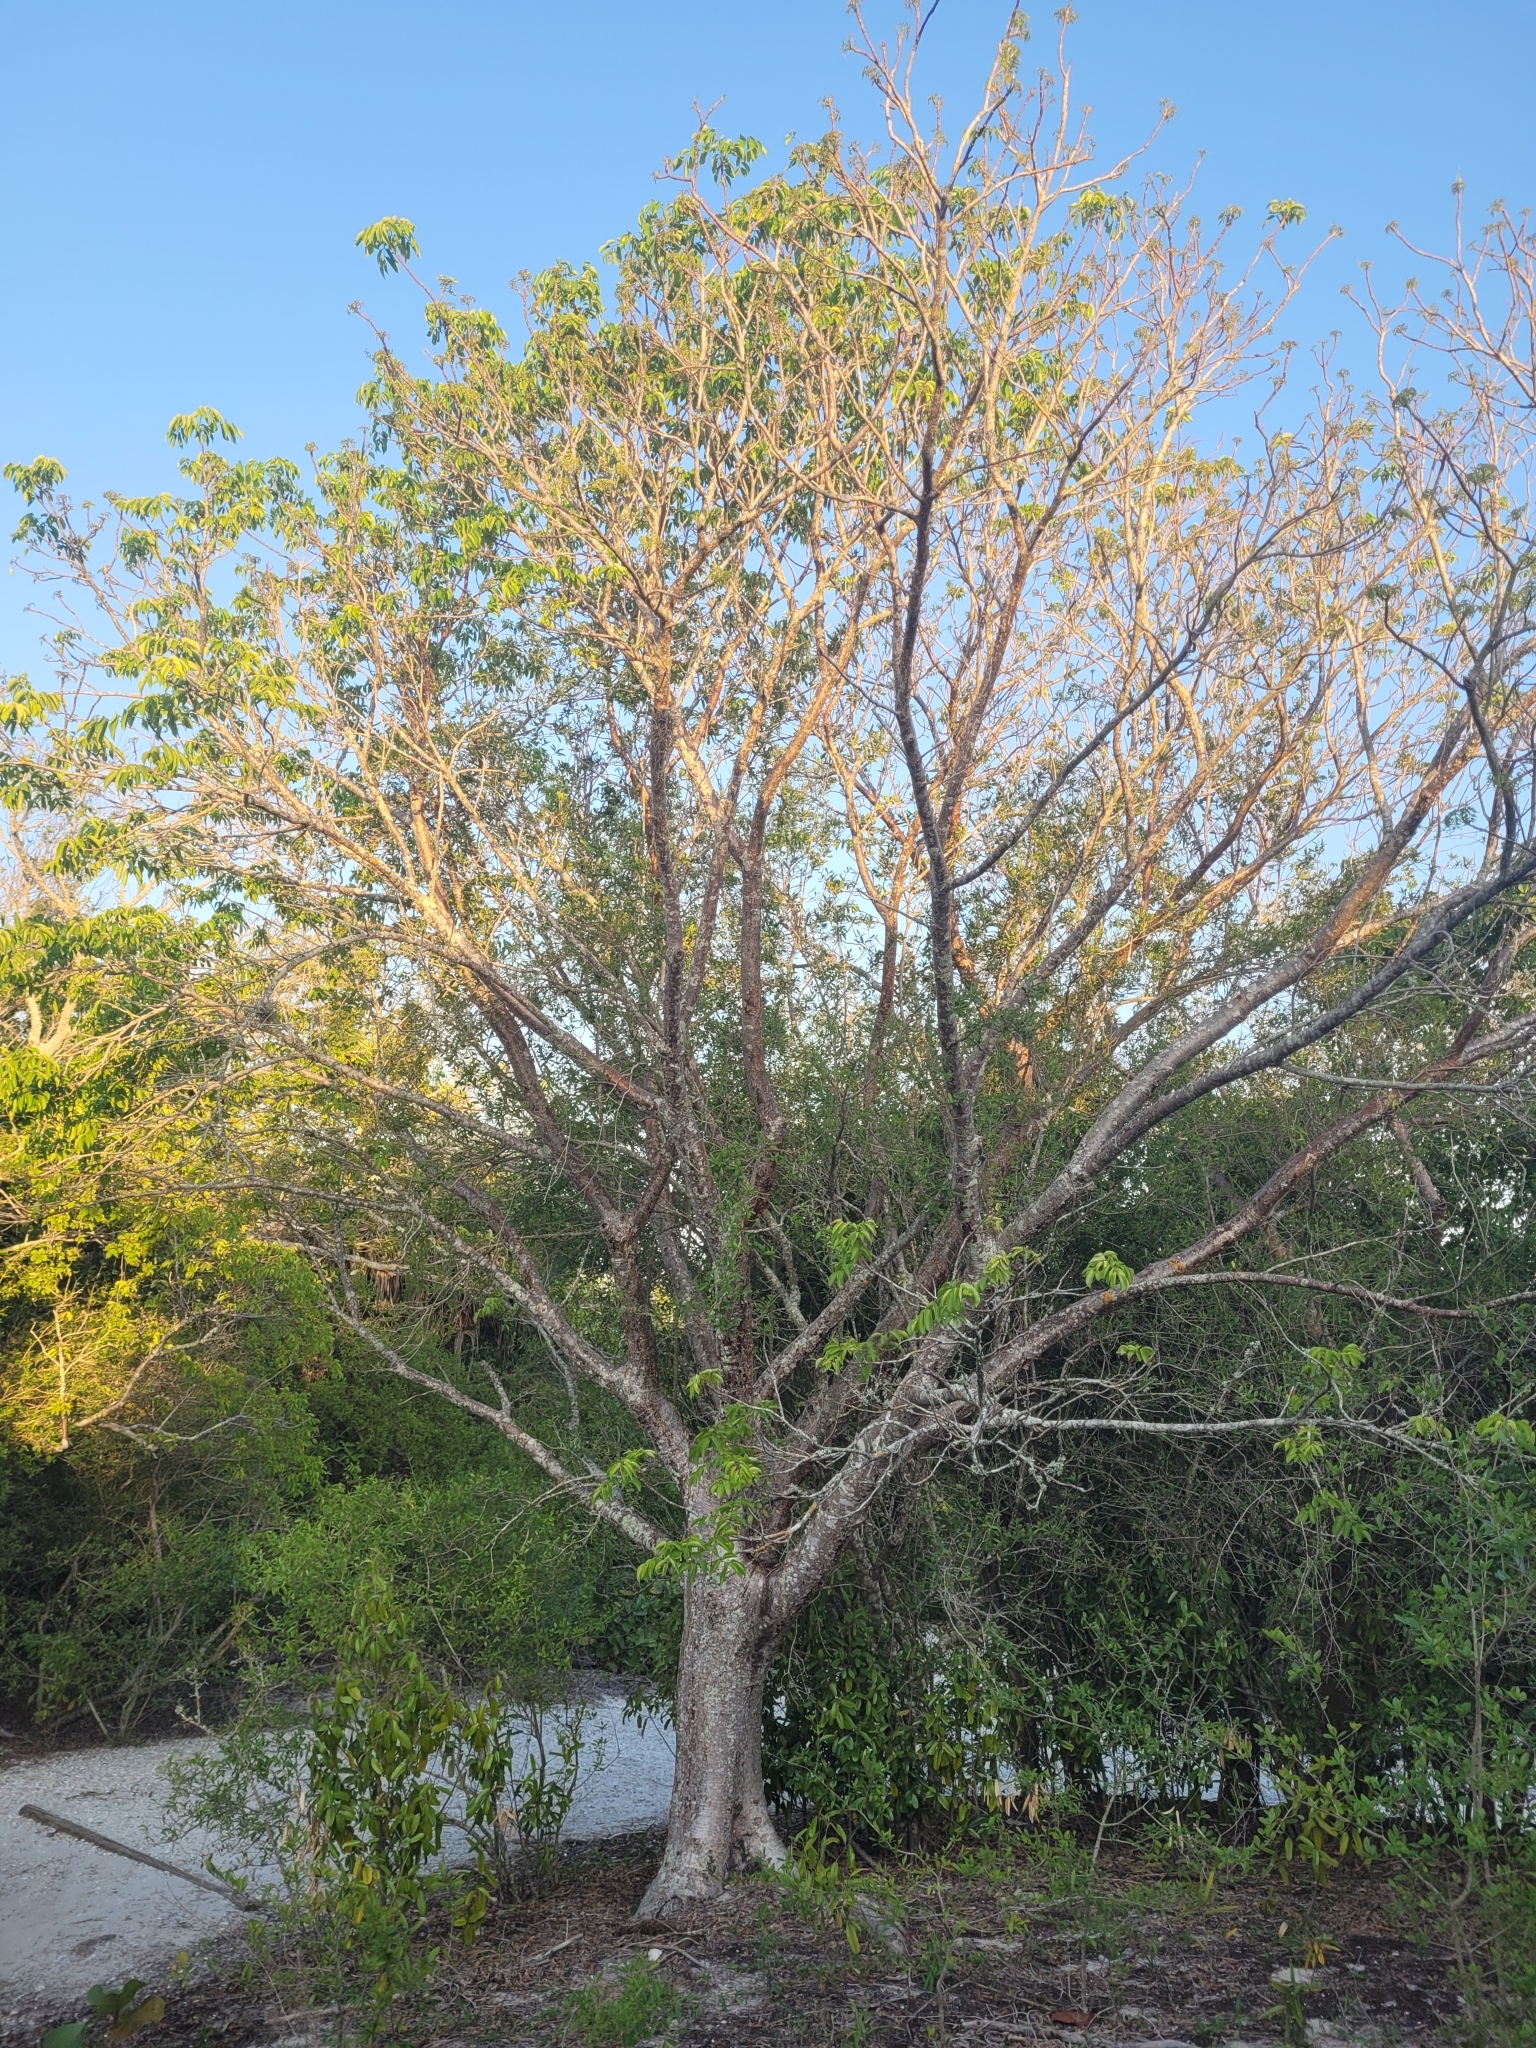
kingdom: Plantae
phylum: Tracheophyta
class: Magnoliopsida
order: Sapindales
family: Burseraceae
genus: Bursera
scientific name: Bursera simaruba
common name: Turpentine tree
